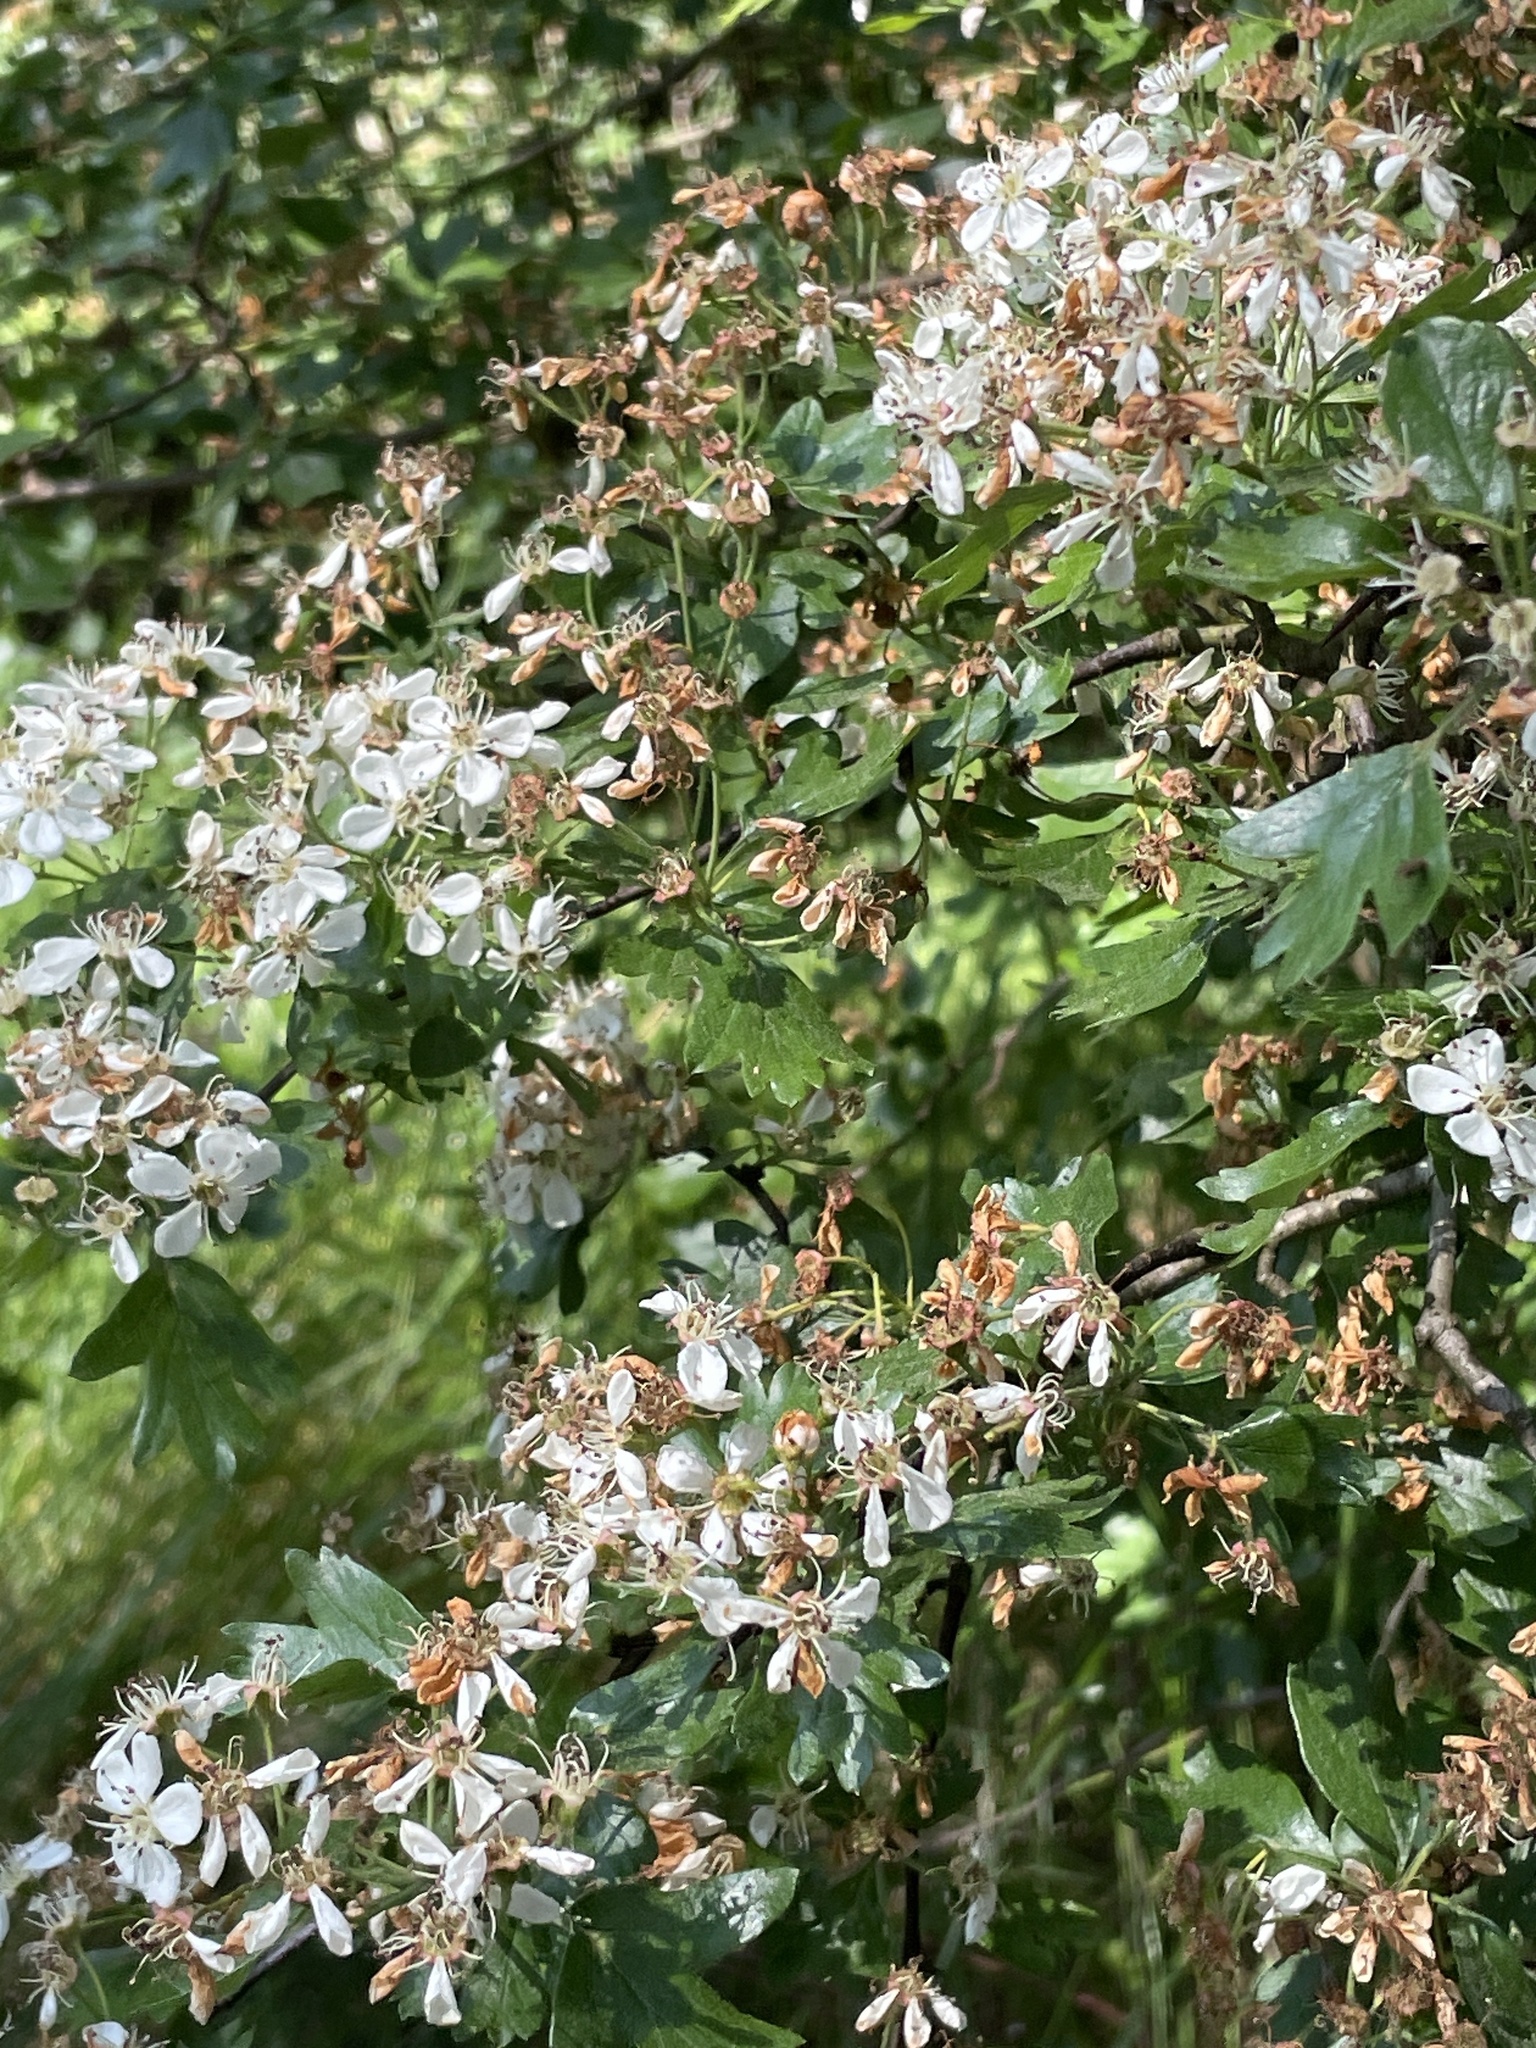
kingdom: Plantae
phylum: Tracheophyta
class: Magnoliopsida
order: Rosales
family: Rosaceae
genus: Crataegus
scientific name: Crataegus monogyna
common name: Hawthorn
